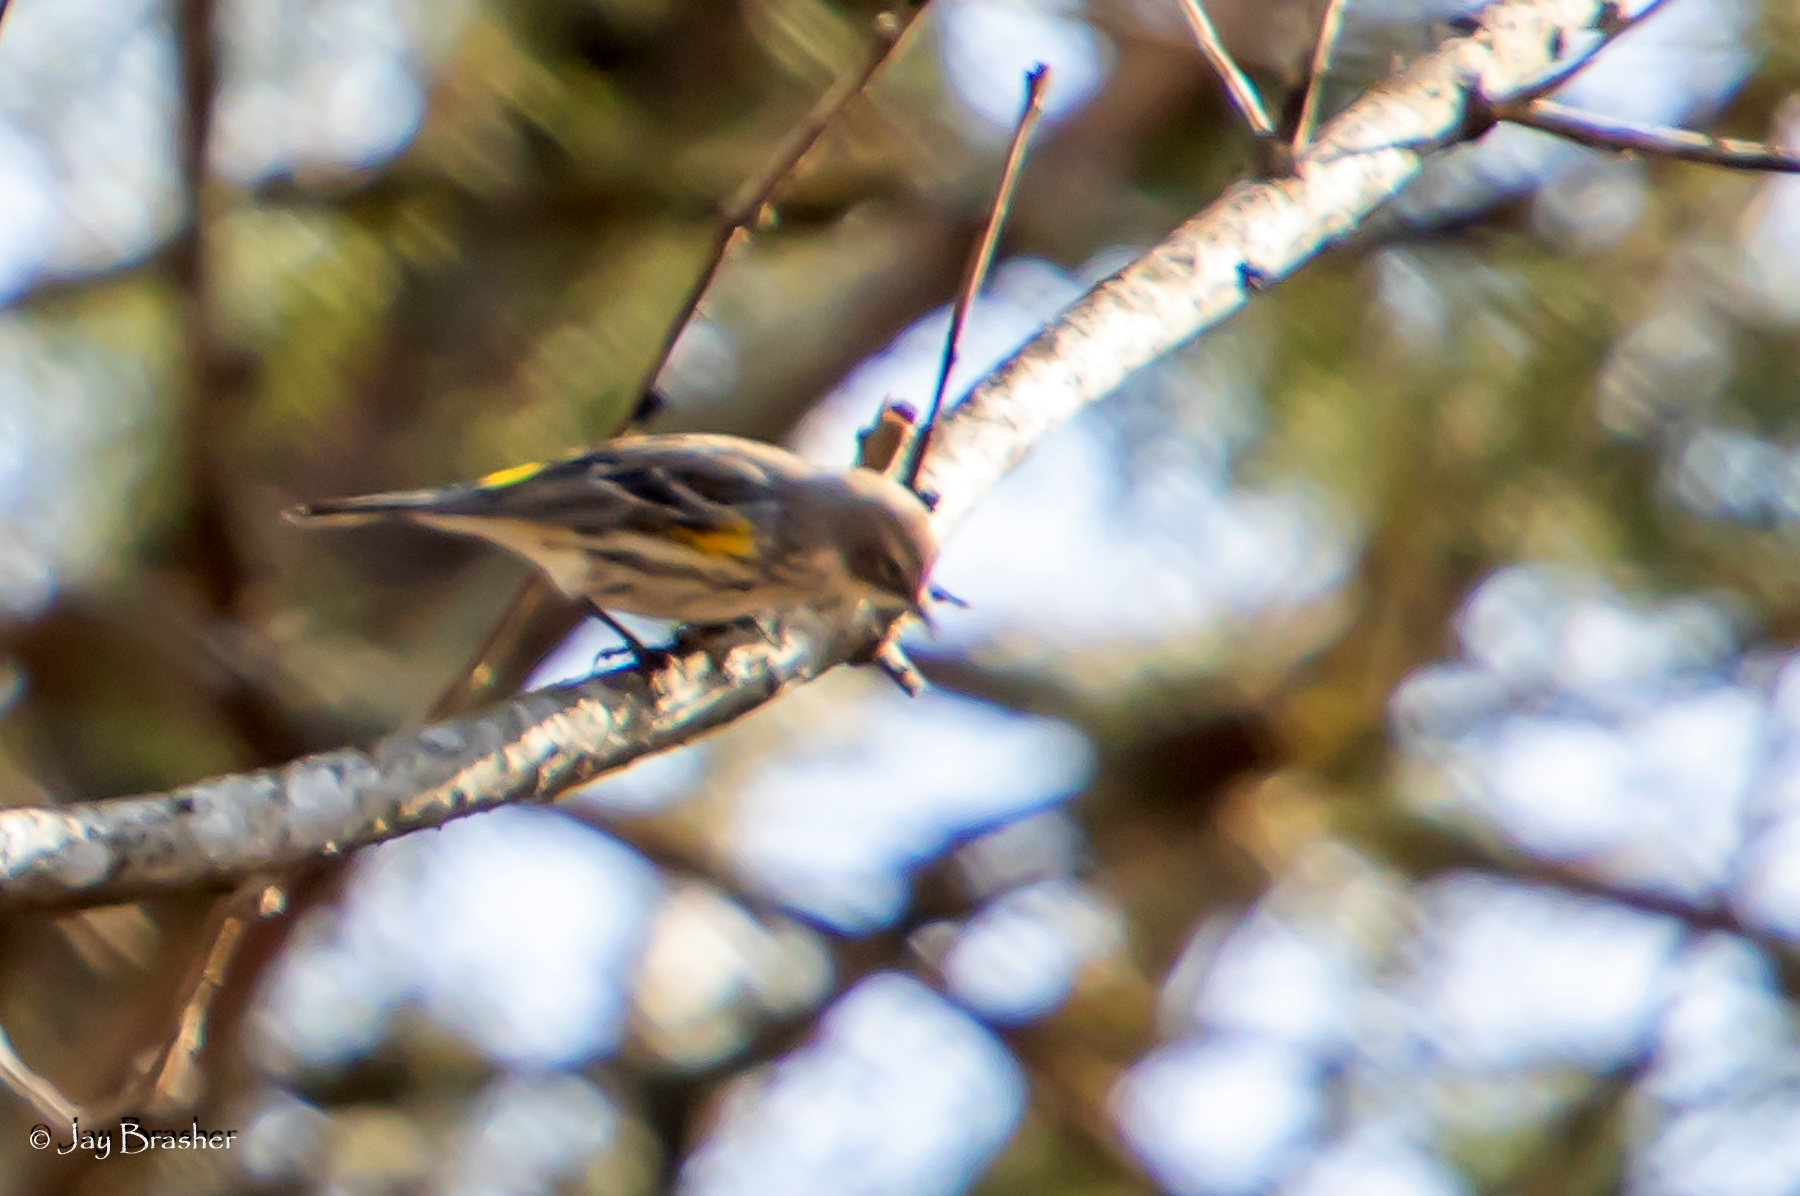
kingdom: Animalia
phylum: Chordata
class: Aves
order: Passeriformes
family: Parulidae
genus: Setophaga
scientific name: Setophaga coronata
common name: Myrtle warbler
